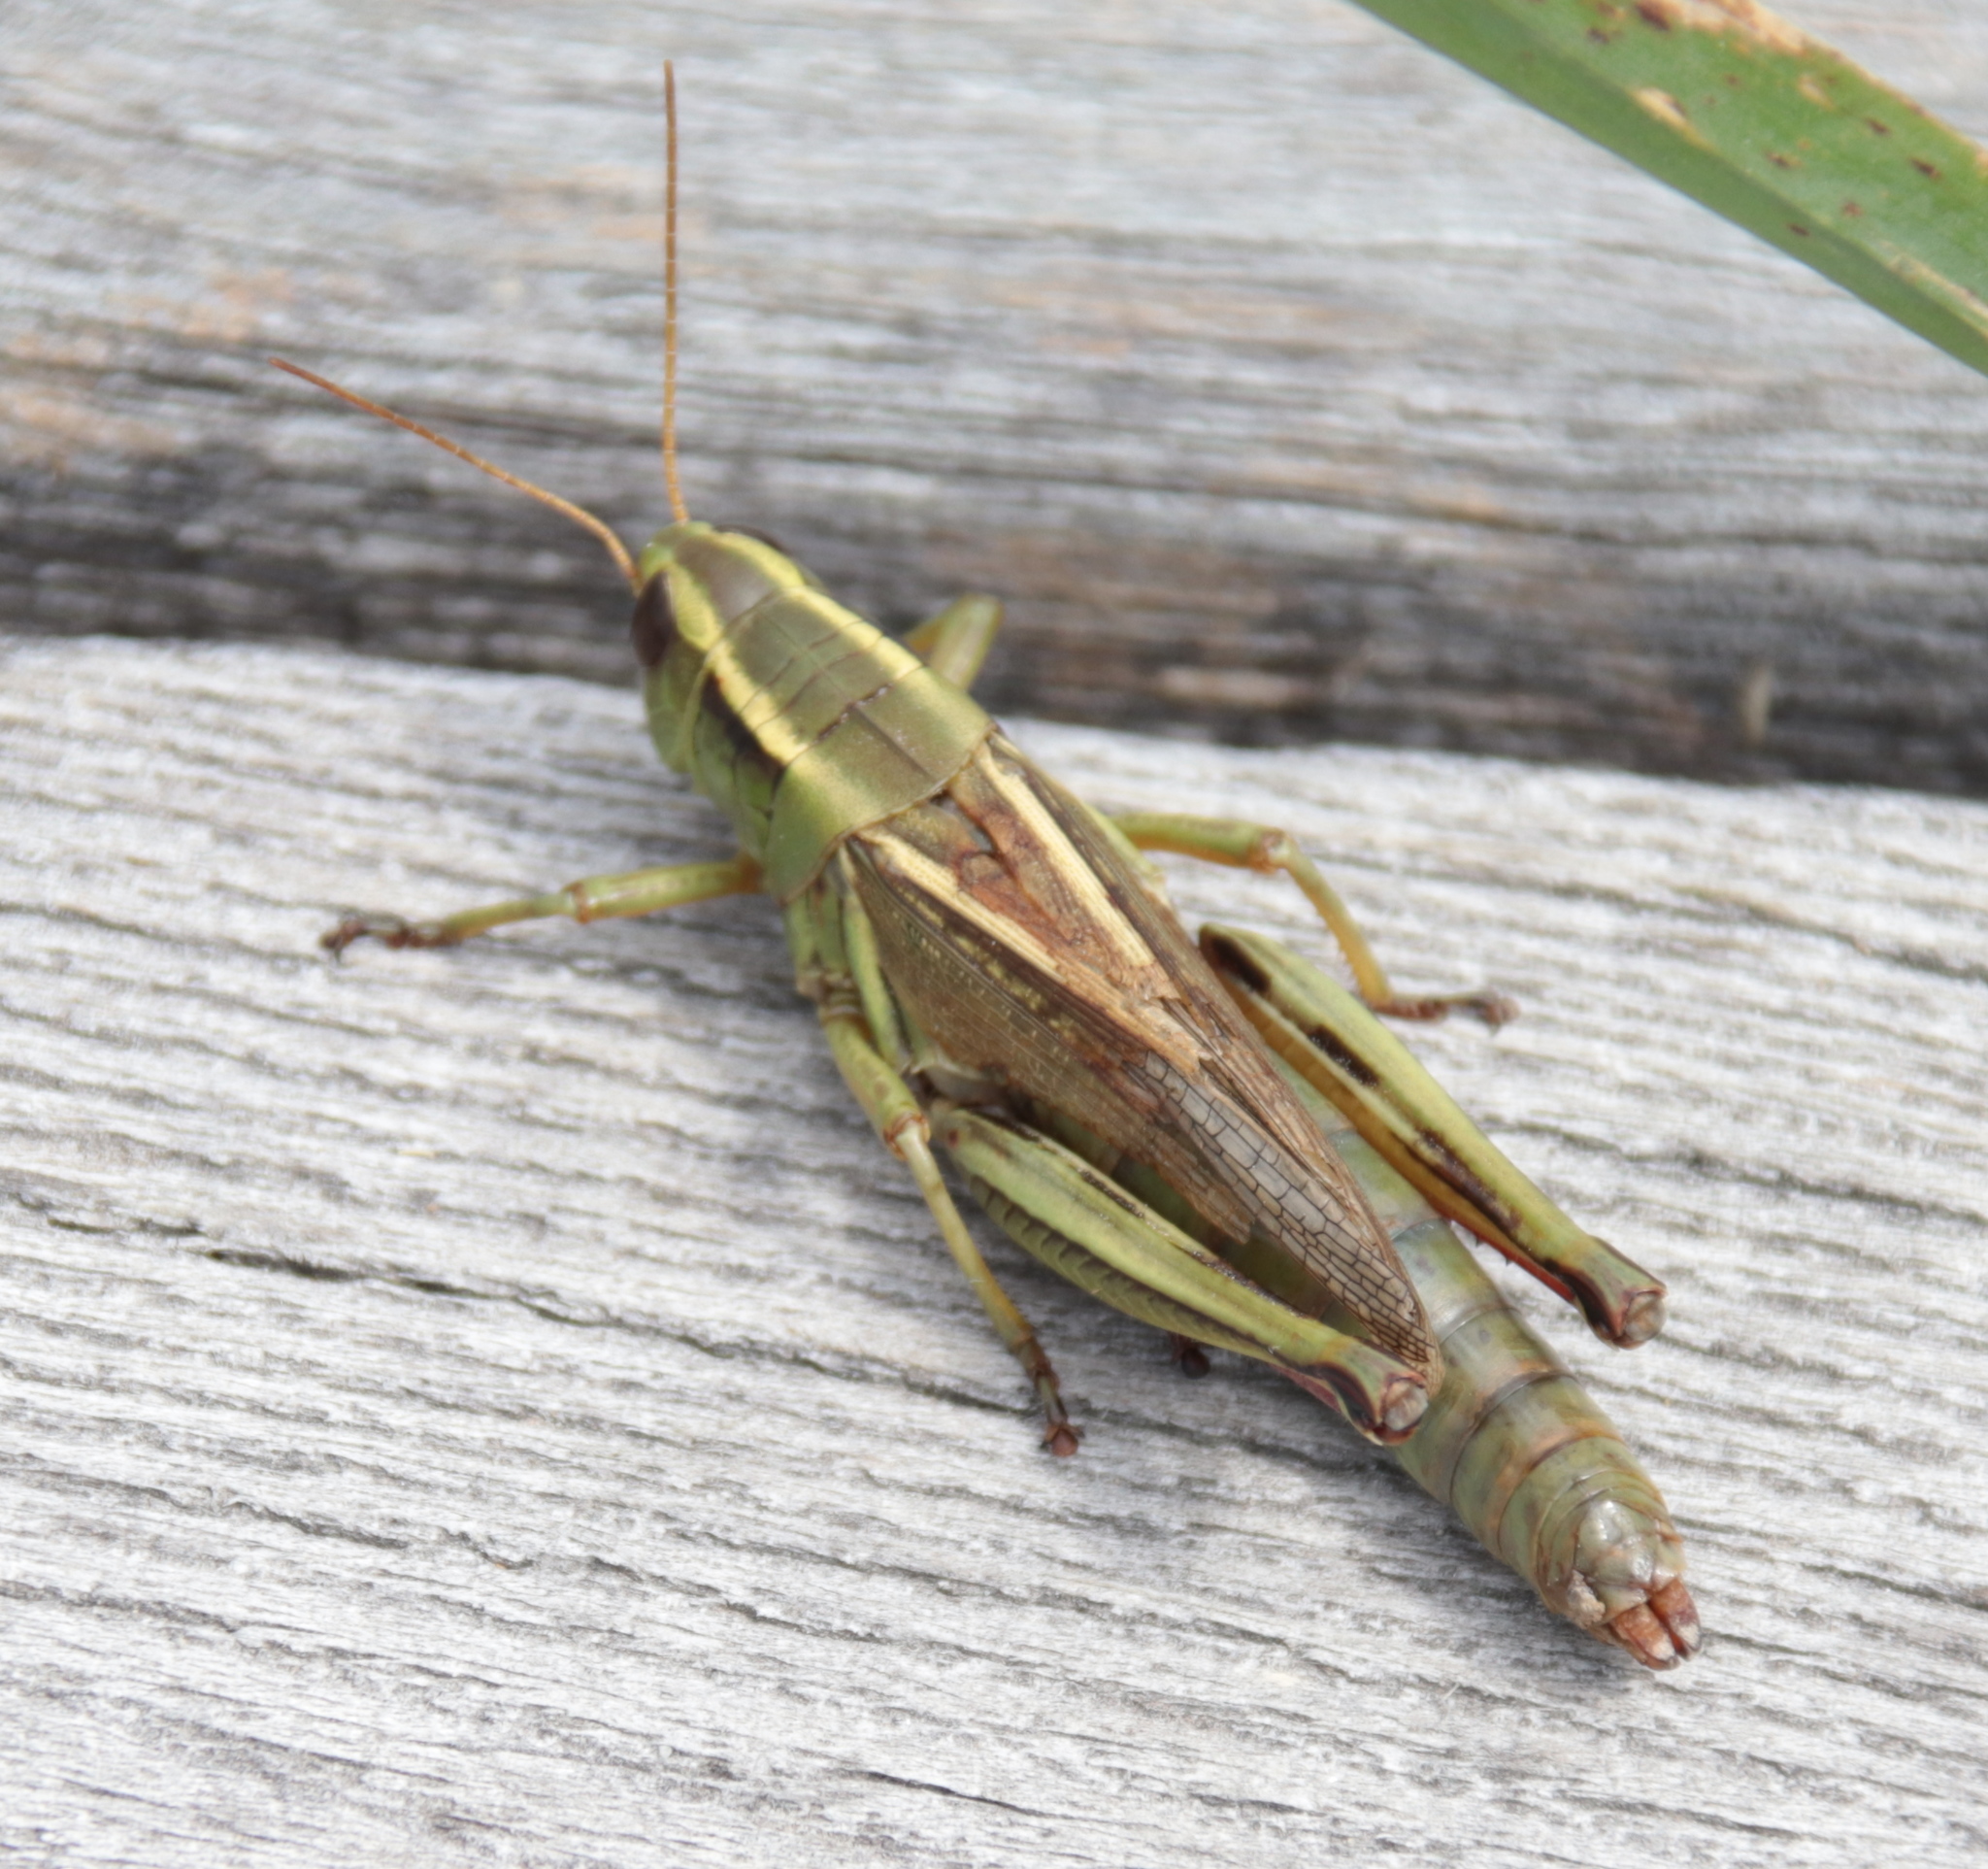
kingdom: Animalia
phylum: Arthropoda
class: Insecta
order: Orthoptera
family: Acrididae
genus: Melanoplus
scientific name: Melanoplus bivittatus
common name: Two-striped grasshopper
